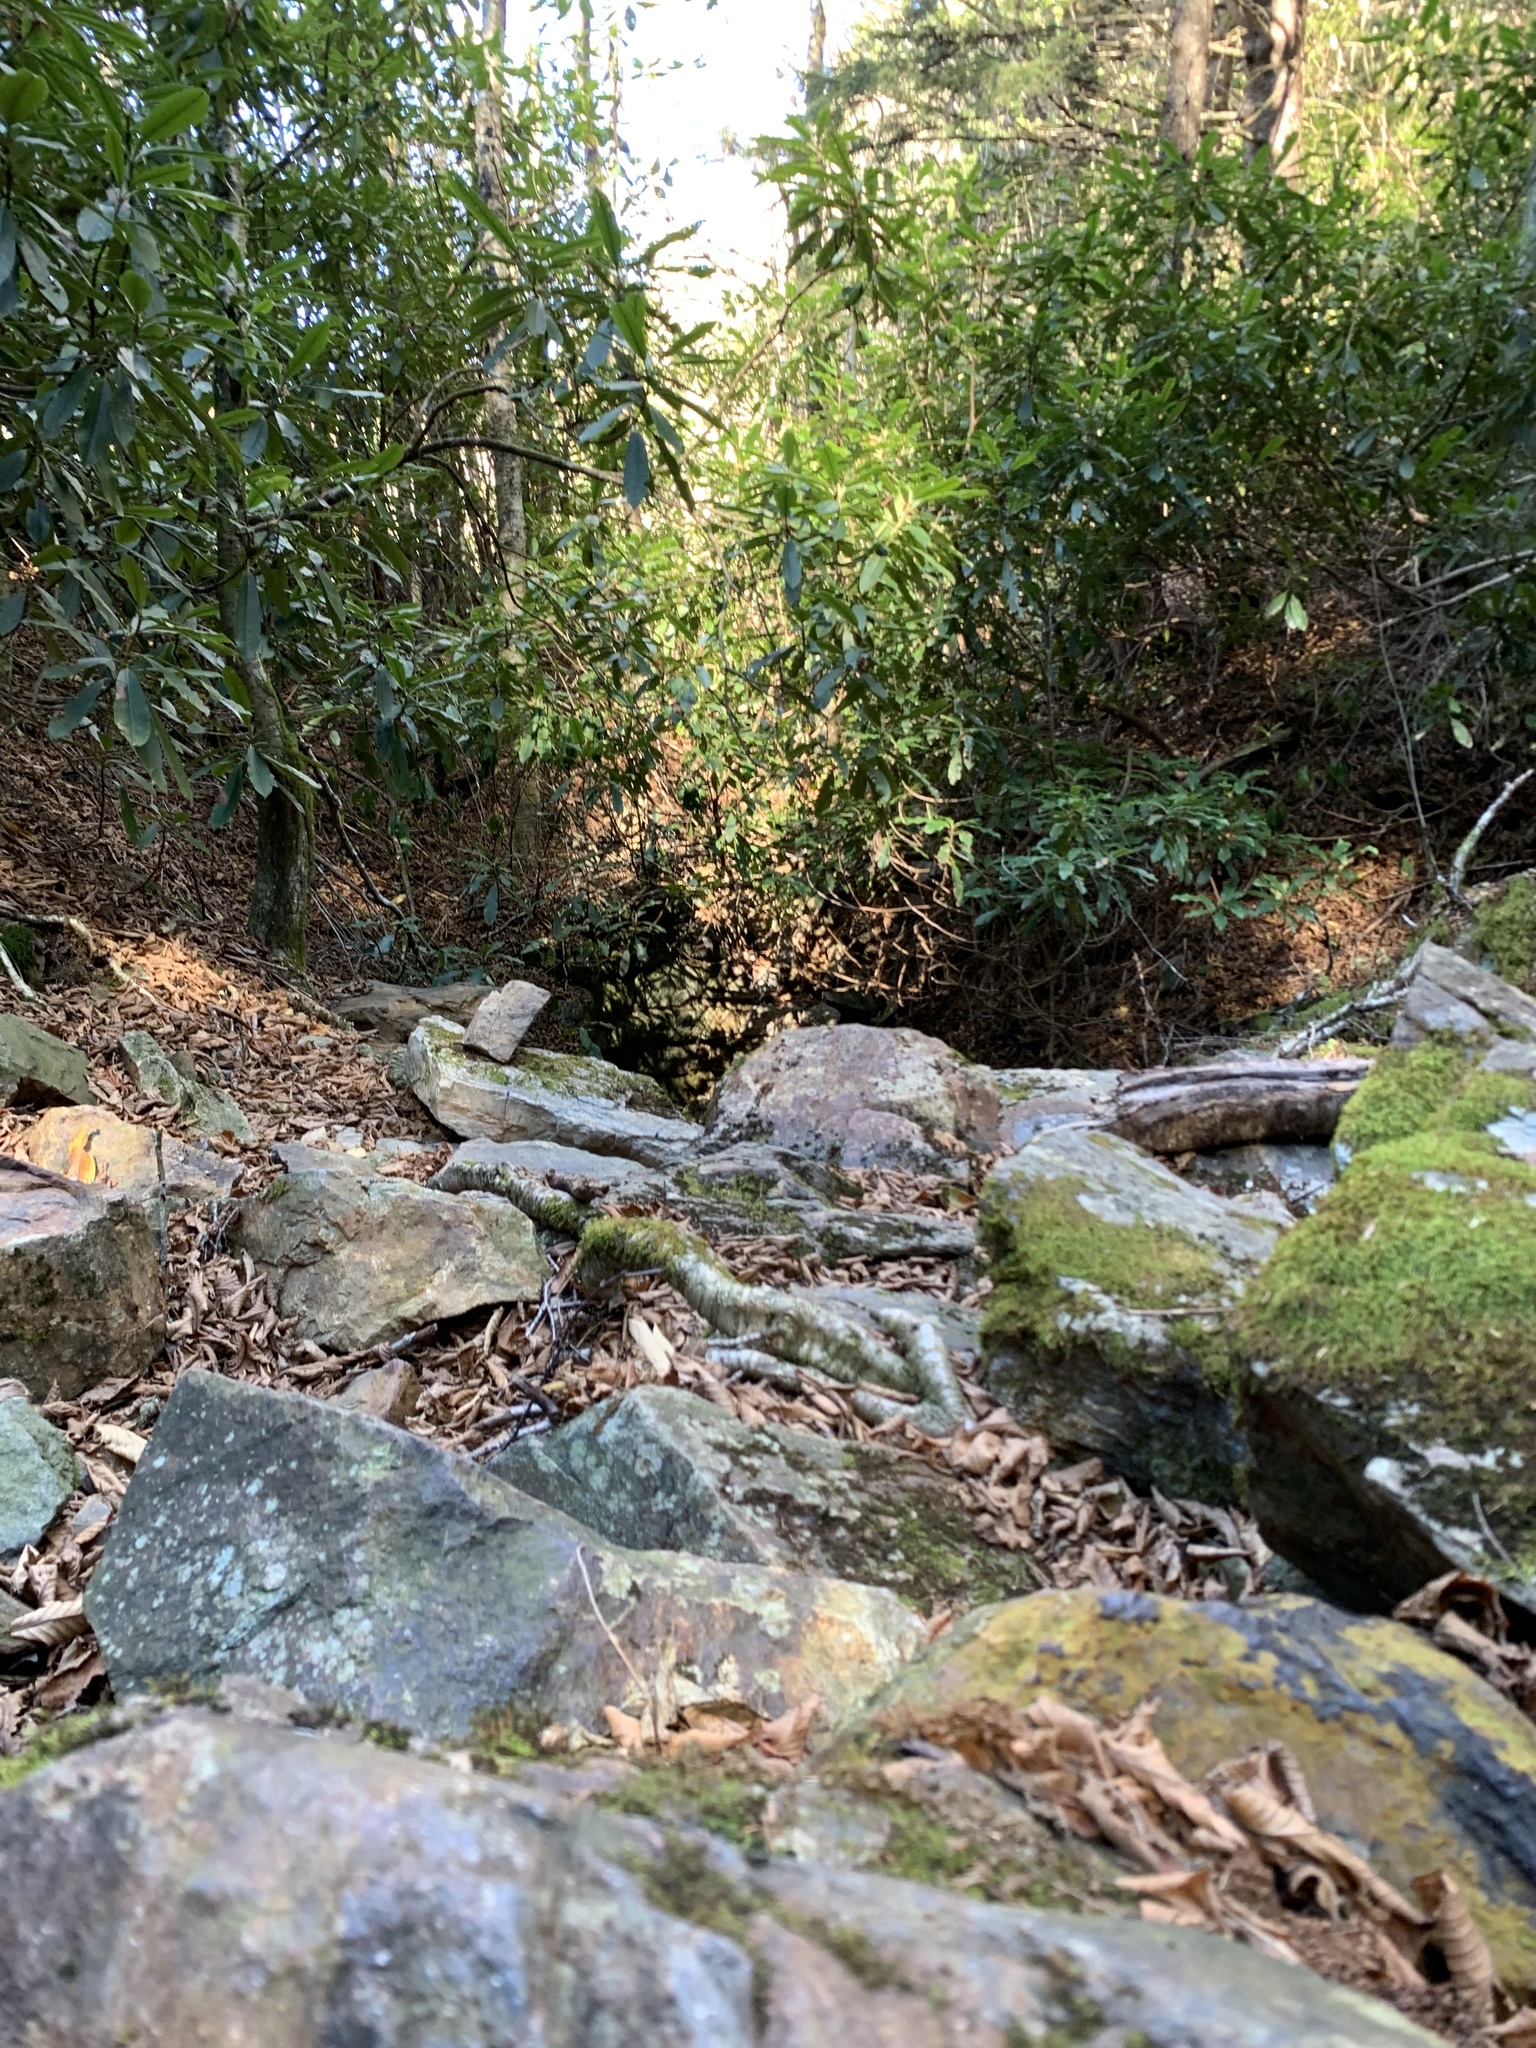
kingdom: Plantae
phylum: Tracheophyta
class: Magnoliopsida
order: Ericales
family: Ericaceae
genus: Rhododendron
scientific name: Rhododendron maximum
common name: Great rhododendron
